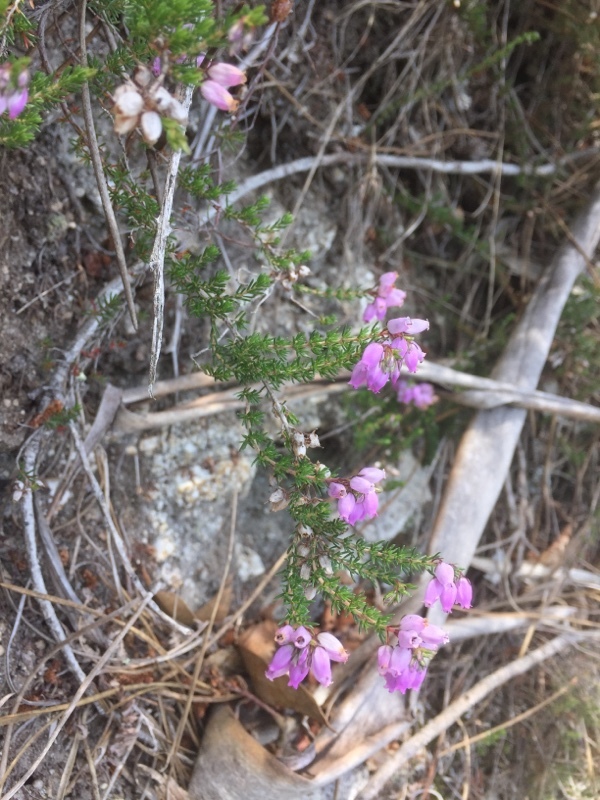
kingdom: Plantae
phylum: Tracheophyta
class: Magnoliopsida
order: Ericales
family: Ericaceae
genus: Erica
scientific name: Erica cinerea
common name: Bell heather
